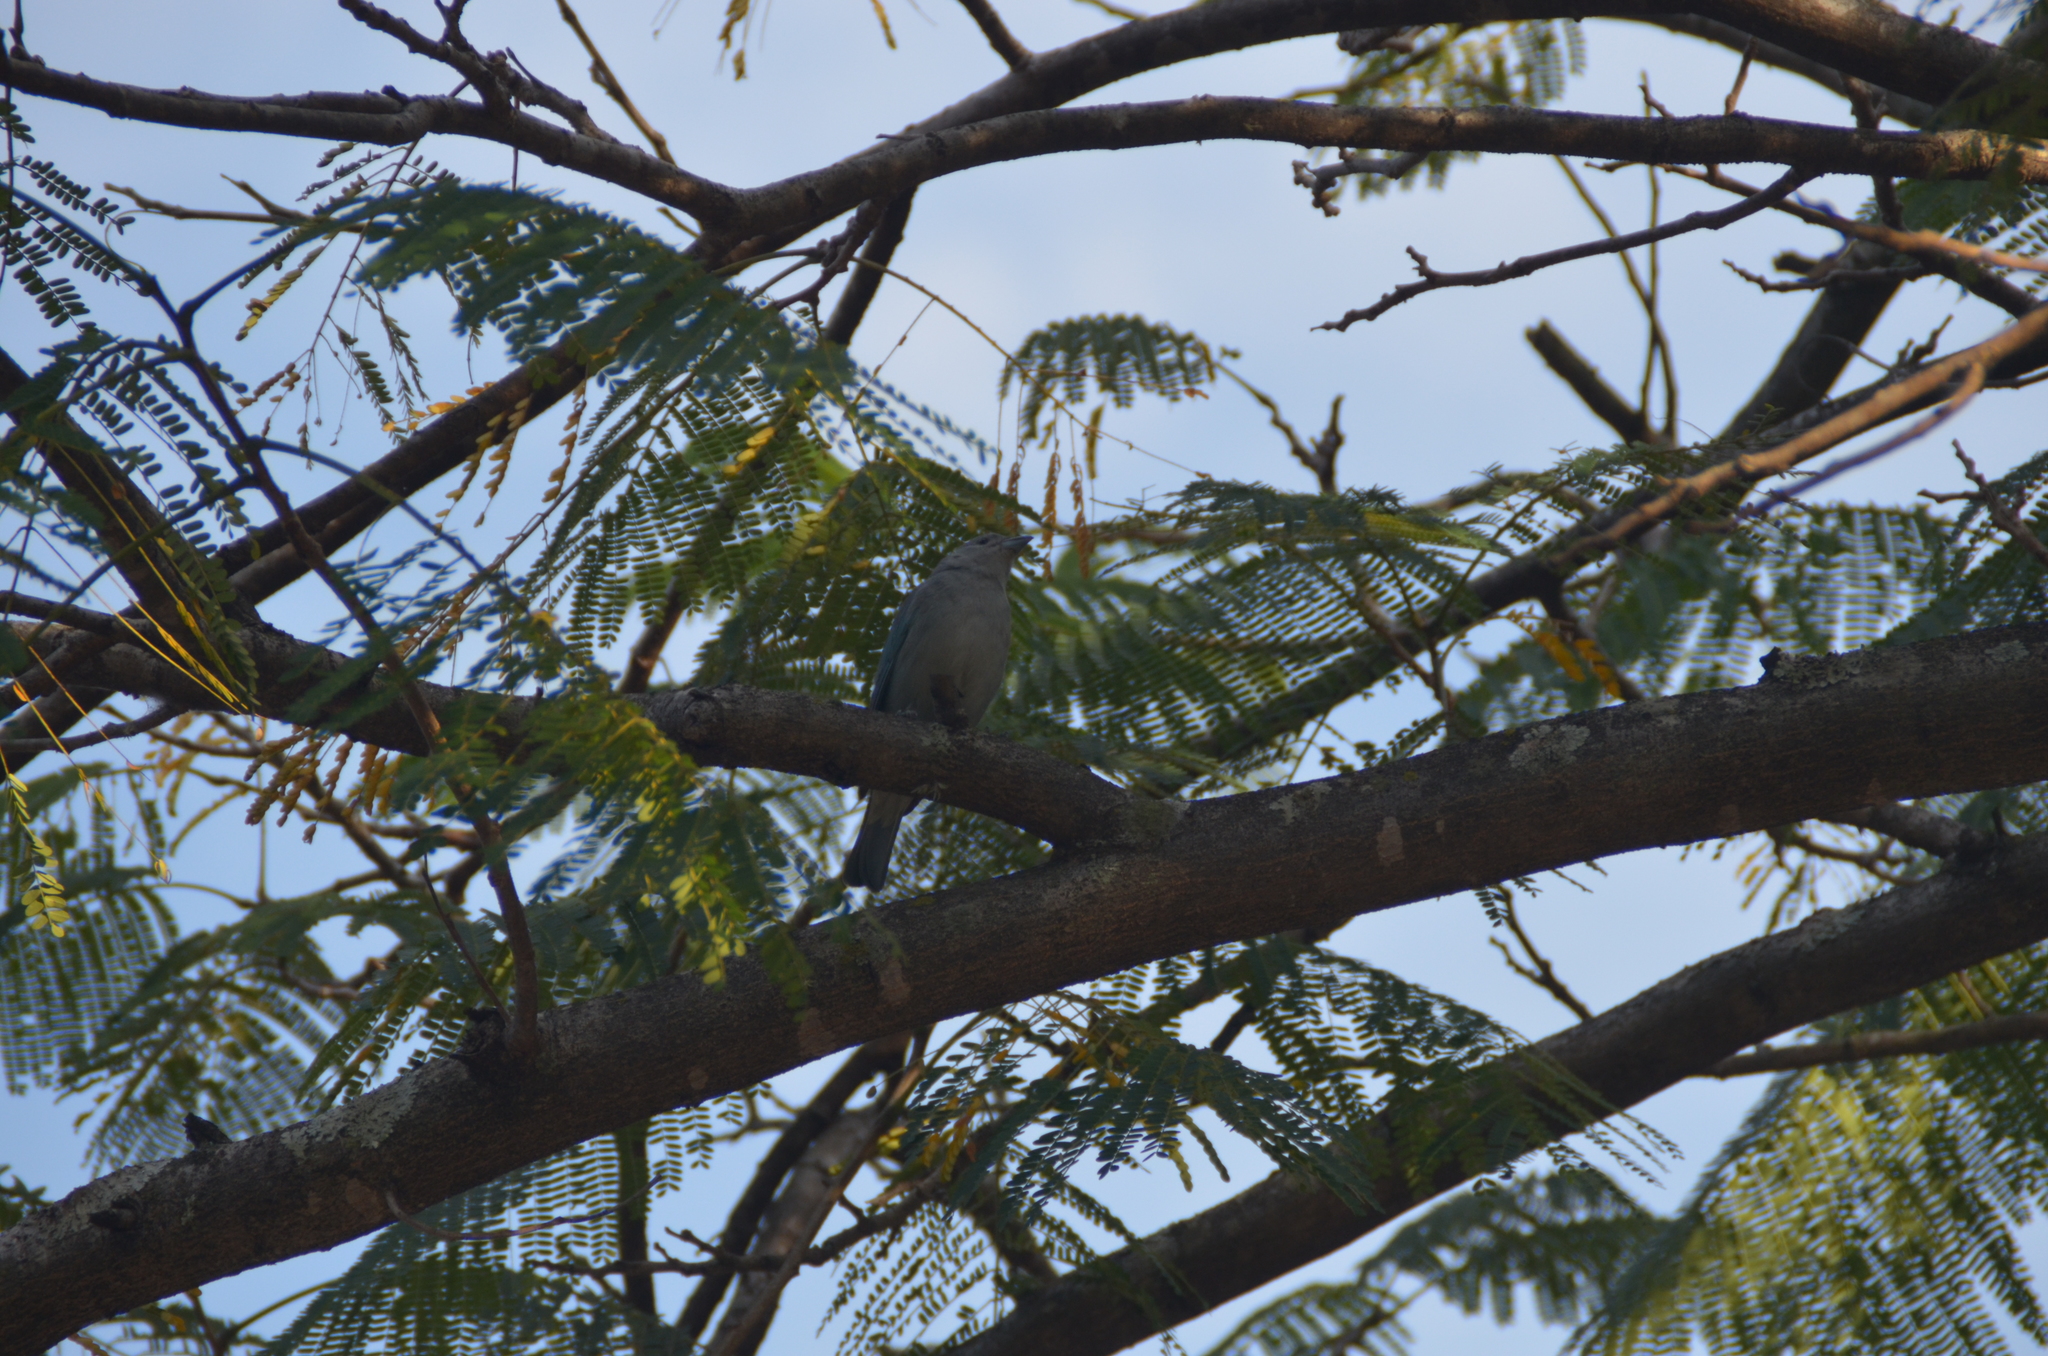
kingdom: Animalia
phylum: Chordata
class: Aves
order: Passeriformes
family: Thraupidae
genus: Thraupis
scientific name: Thraupis sayaca
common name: Sayaca tanager
